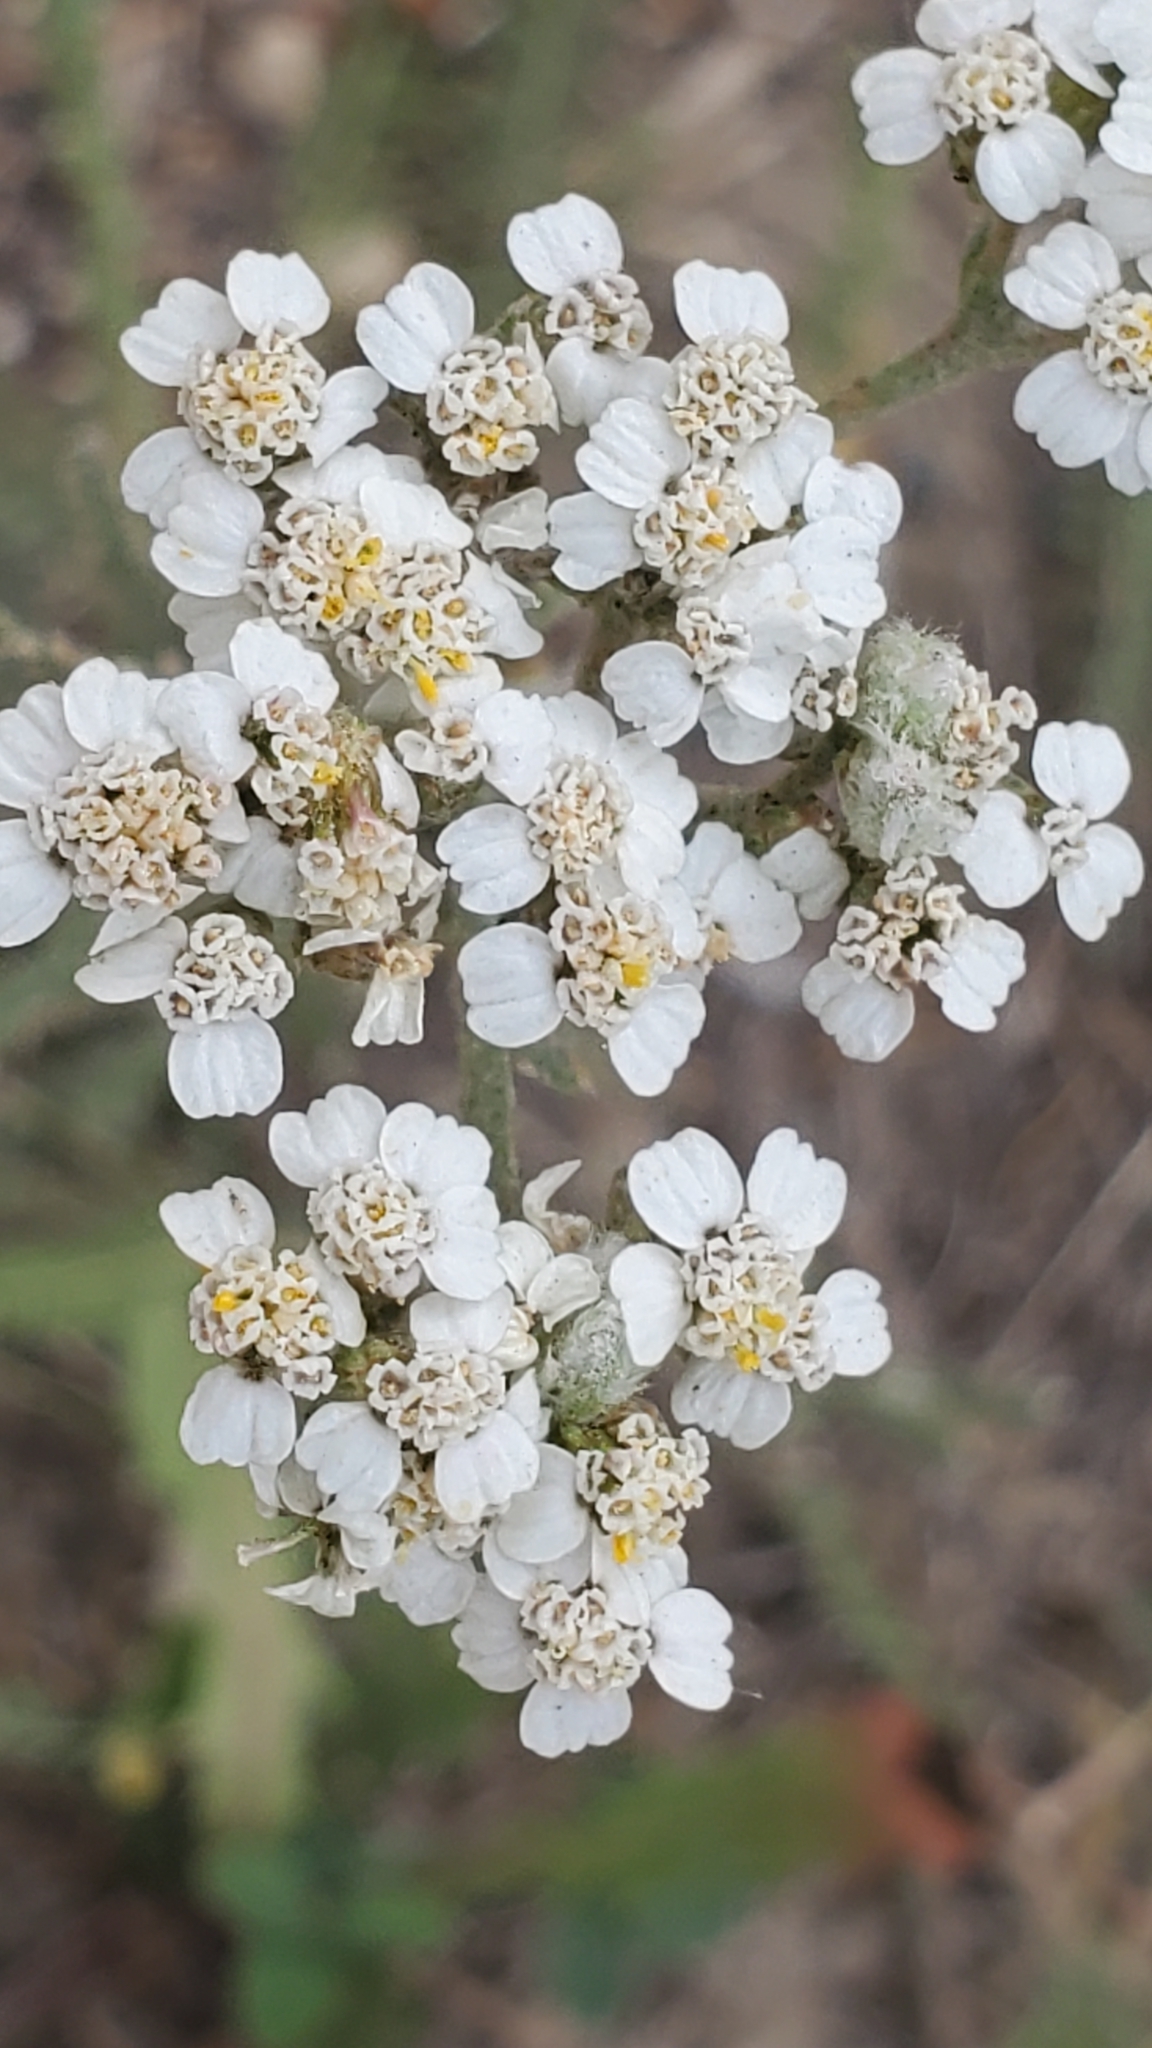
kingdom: Plantae
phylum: Tracheophyta
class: Magnoliopsida
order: Asterales
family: Asteraceae
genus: Achillea
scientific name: Achillea millefolium
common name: Yarrow
